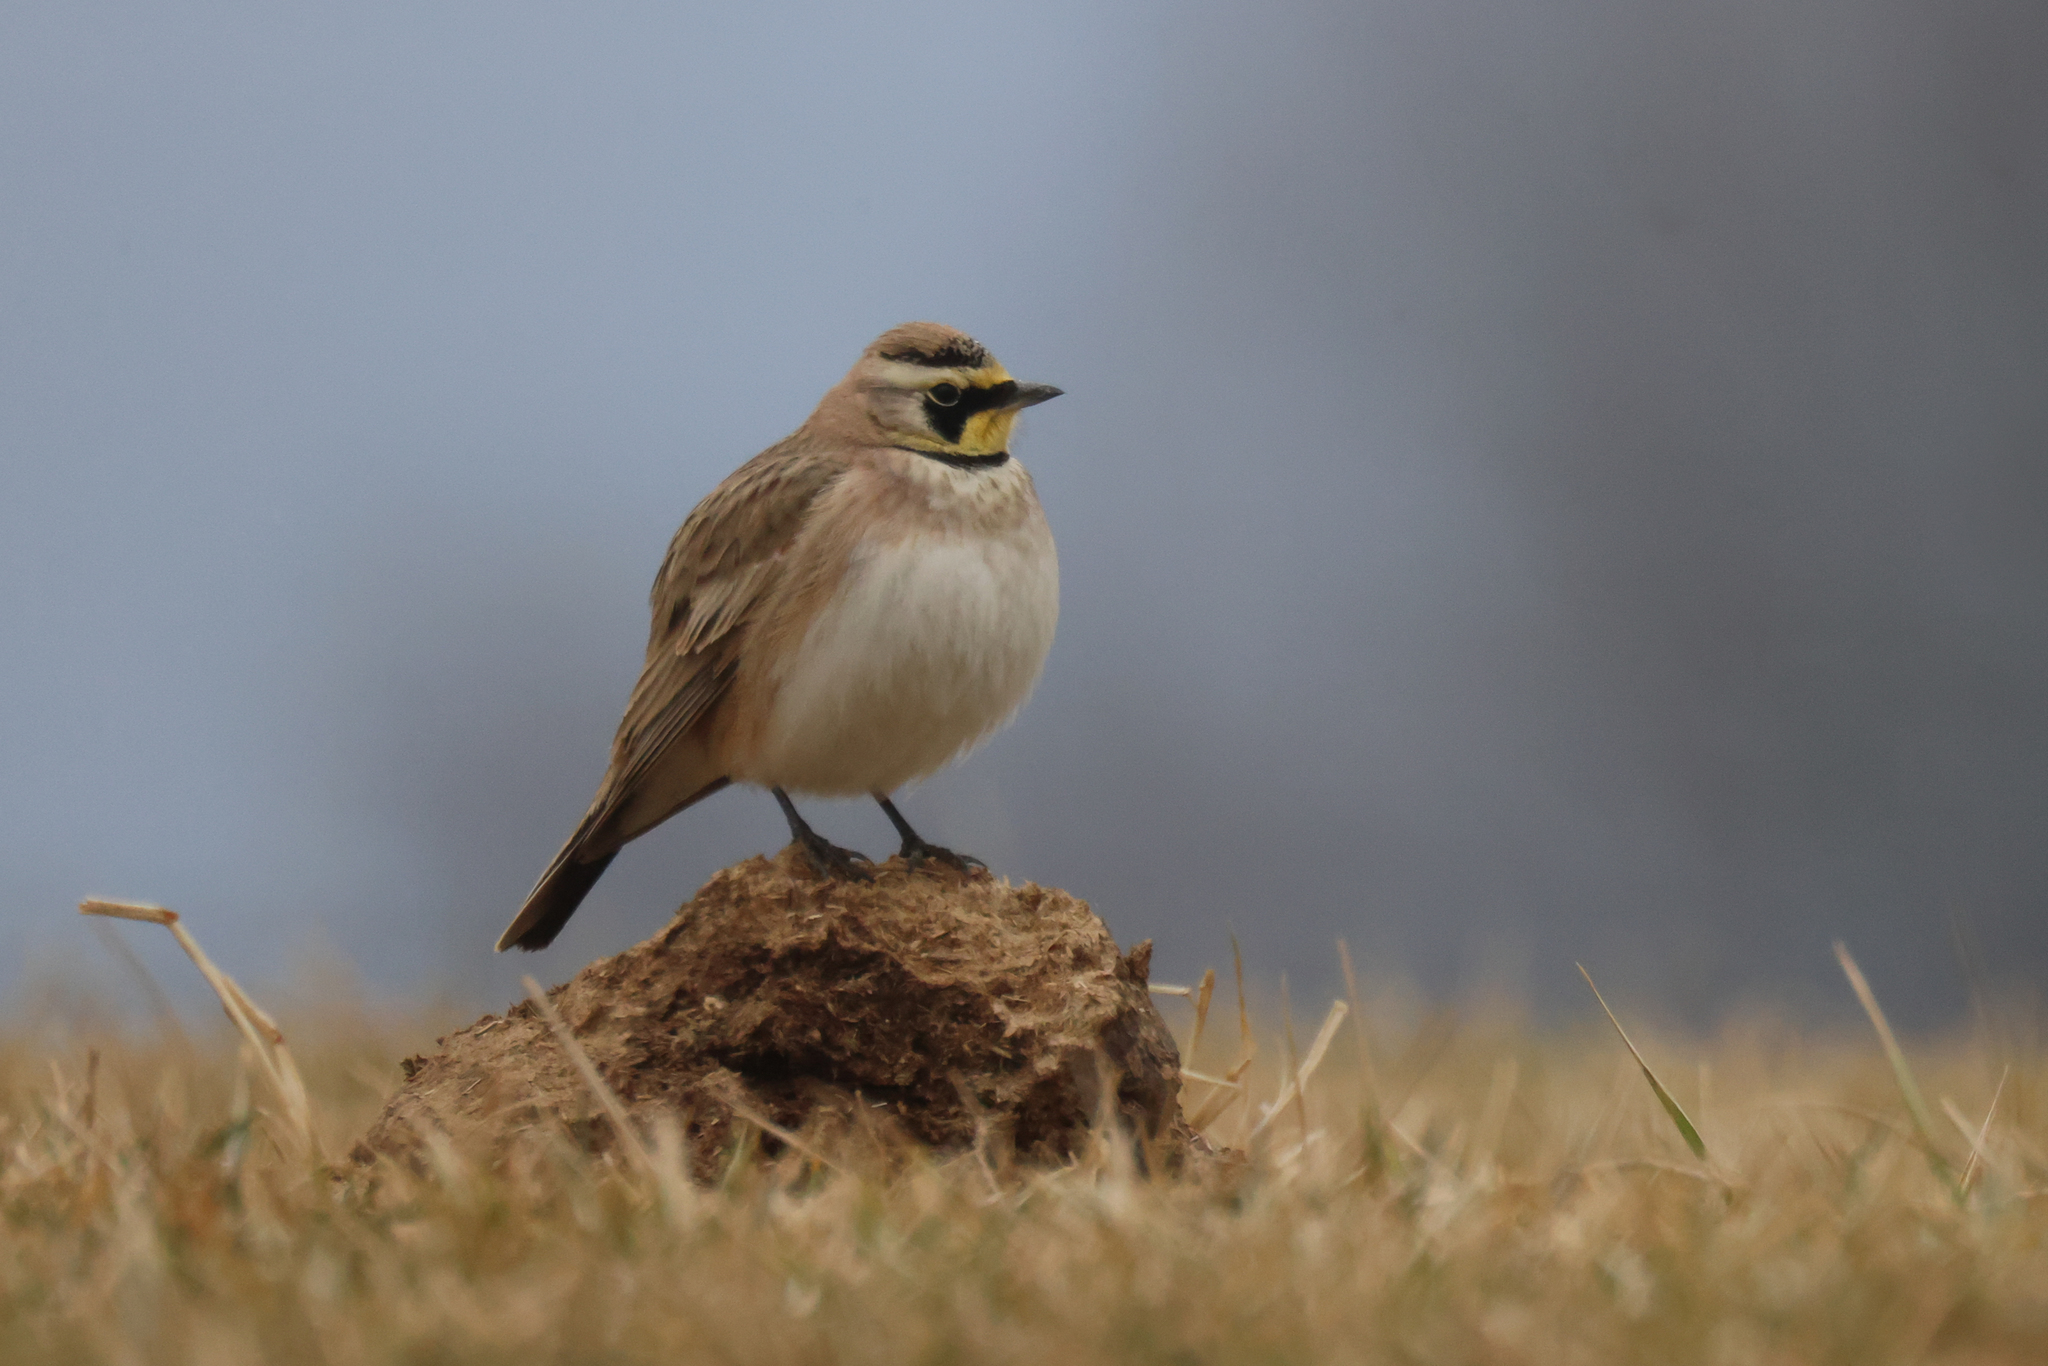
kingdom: Animalia
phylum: Chordata
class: Aves
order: Passeriformes
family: Alaudidae
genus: Eremophila
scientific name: Eremophila alpestris
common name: Horned lark
